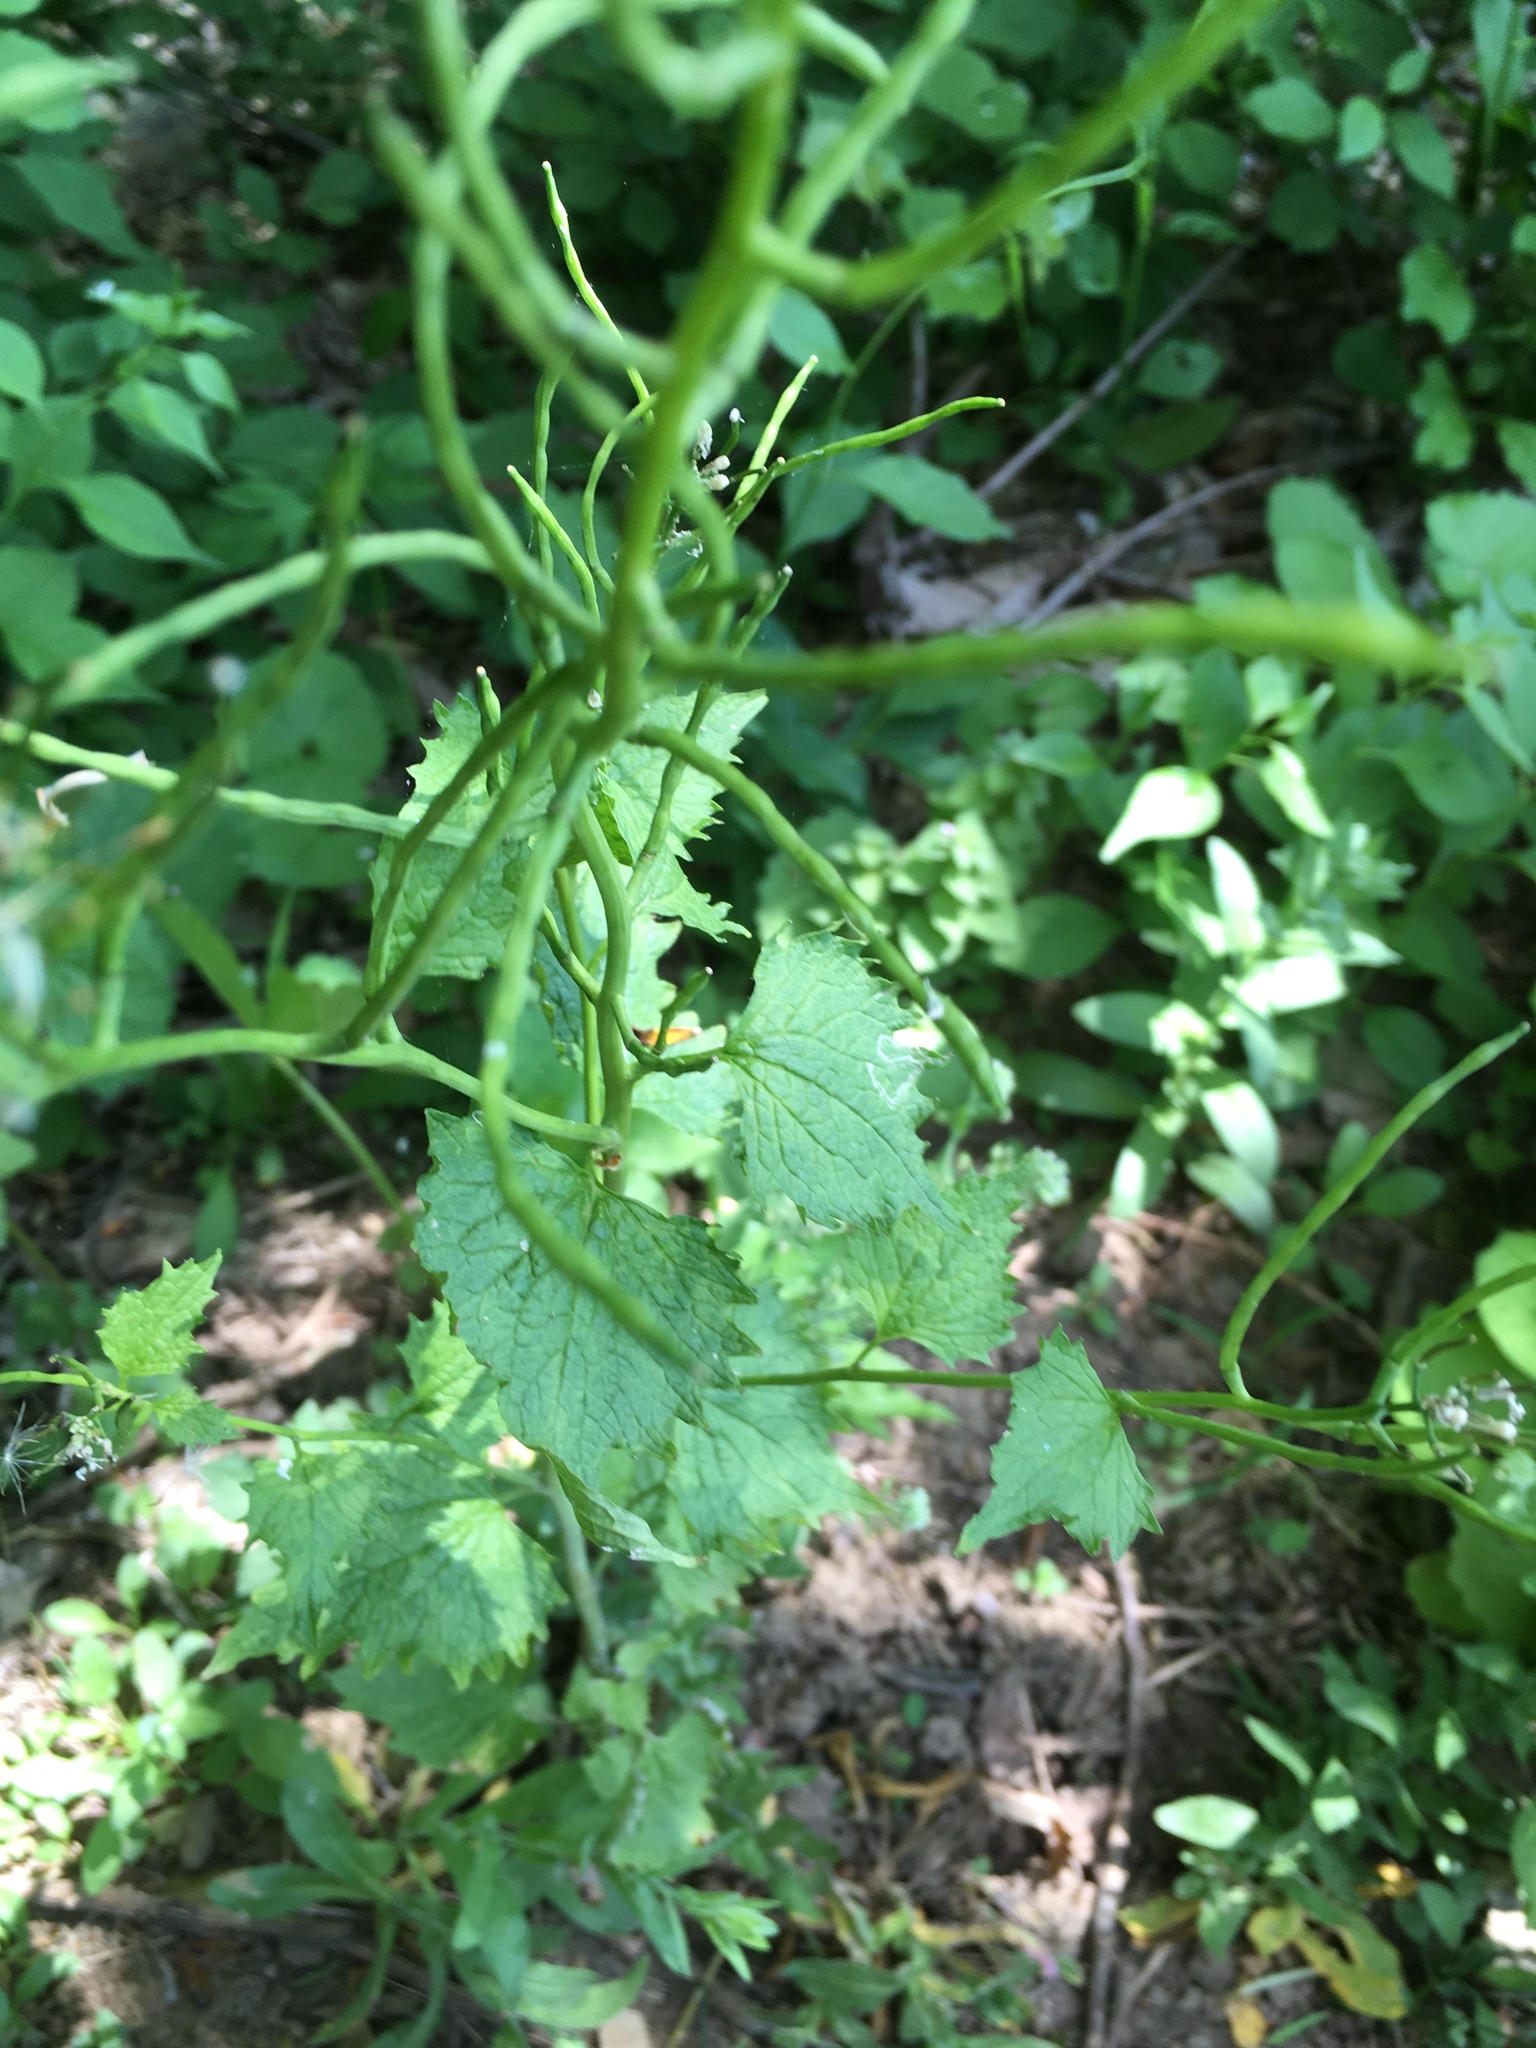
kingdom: Plantae
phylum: Tracheophyta
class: Magnoliopsida
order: Brassicales
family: Brassicaceae
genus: Alliaria
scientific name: Alliaria petiolata
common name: Garlic mustard
